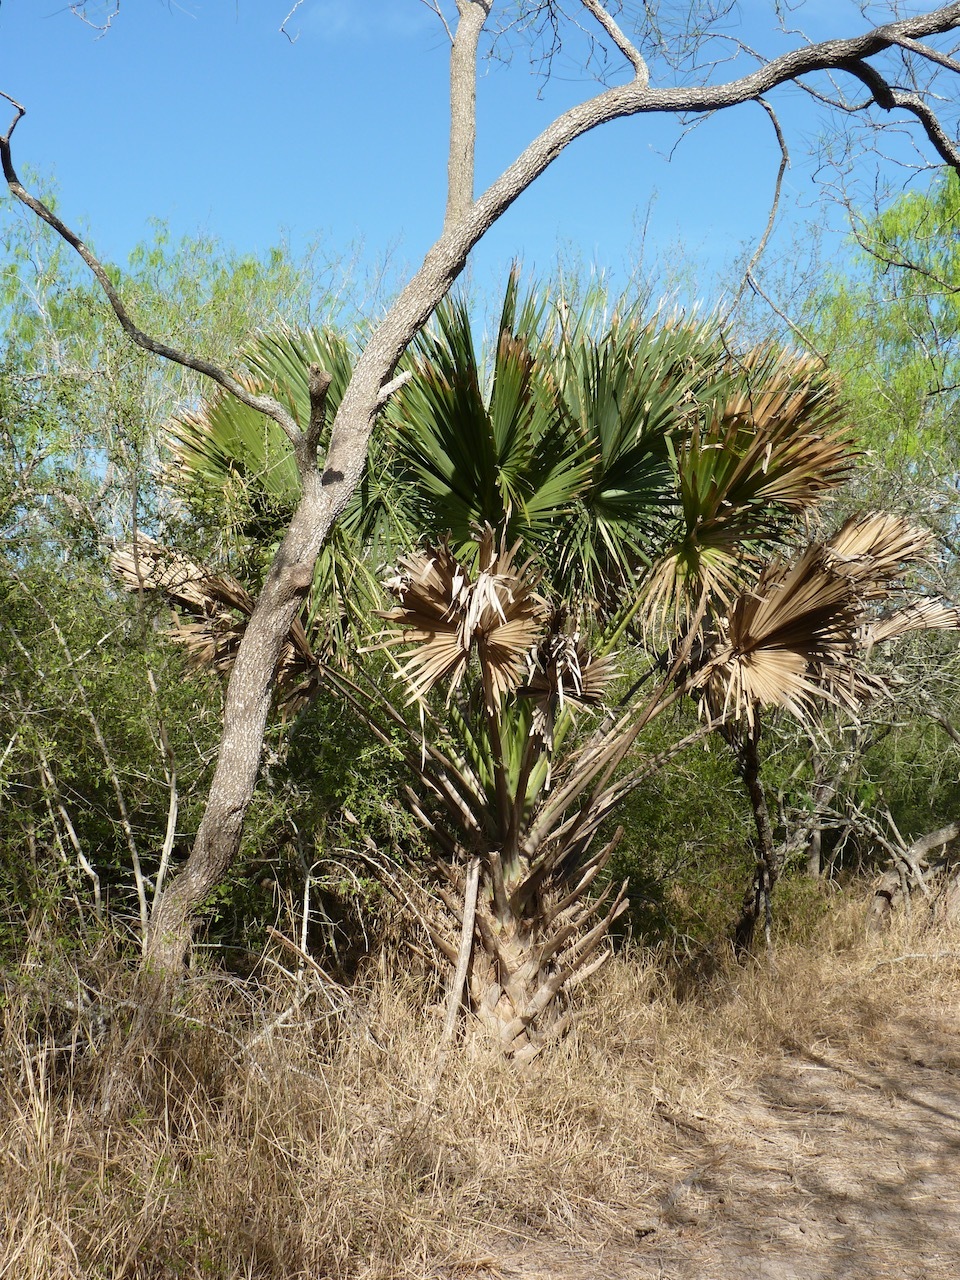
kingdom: Plantae
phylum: Tracheophyta
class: Liliopsida
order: Arecales
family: Arecaceae
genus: Sabal
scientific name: Sabal mexicana
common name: Texas palmetto
